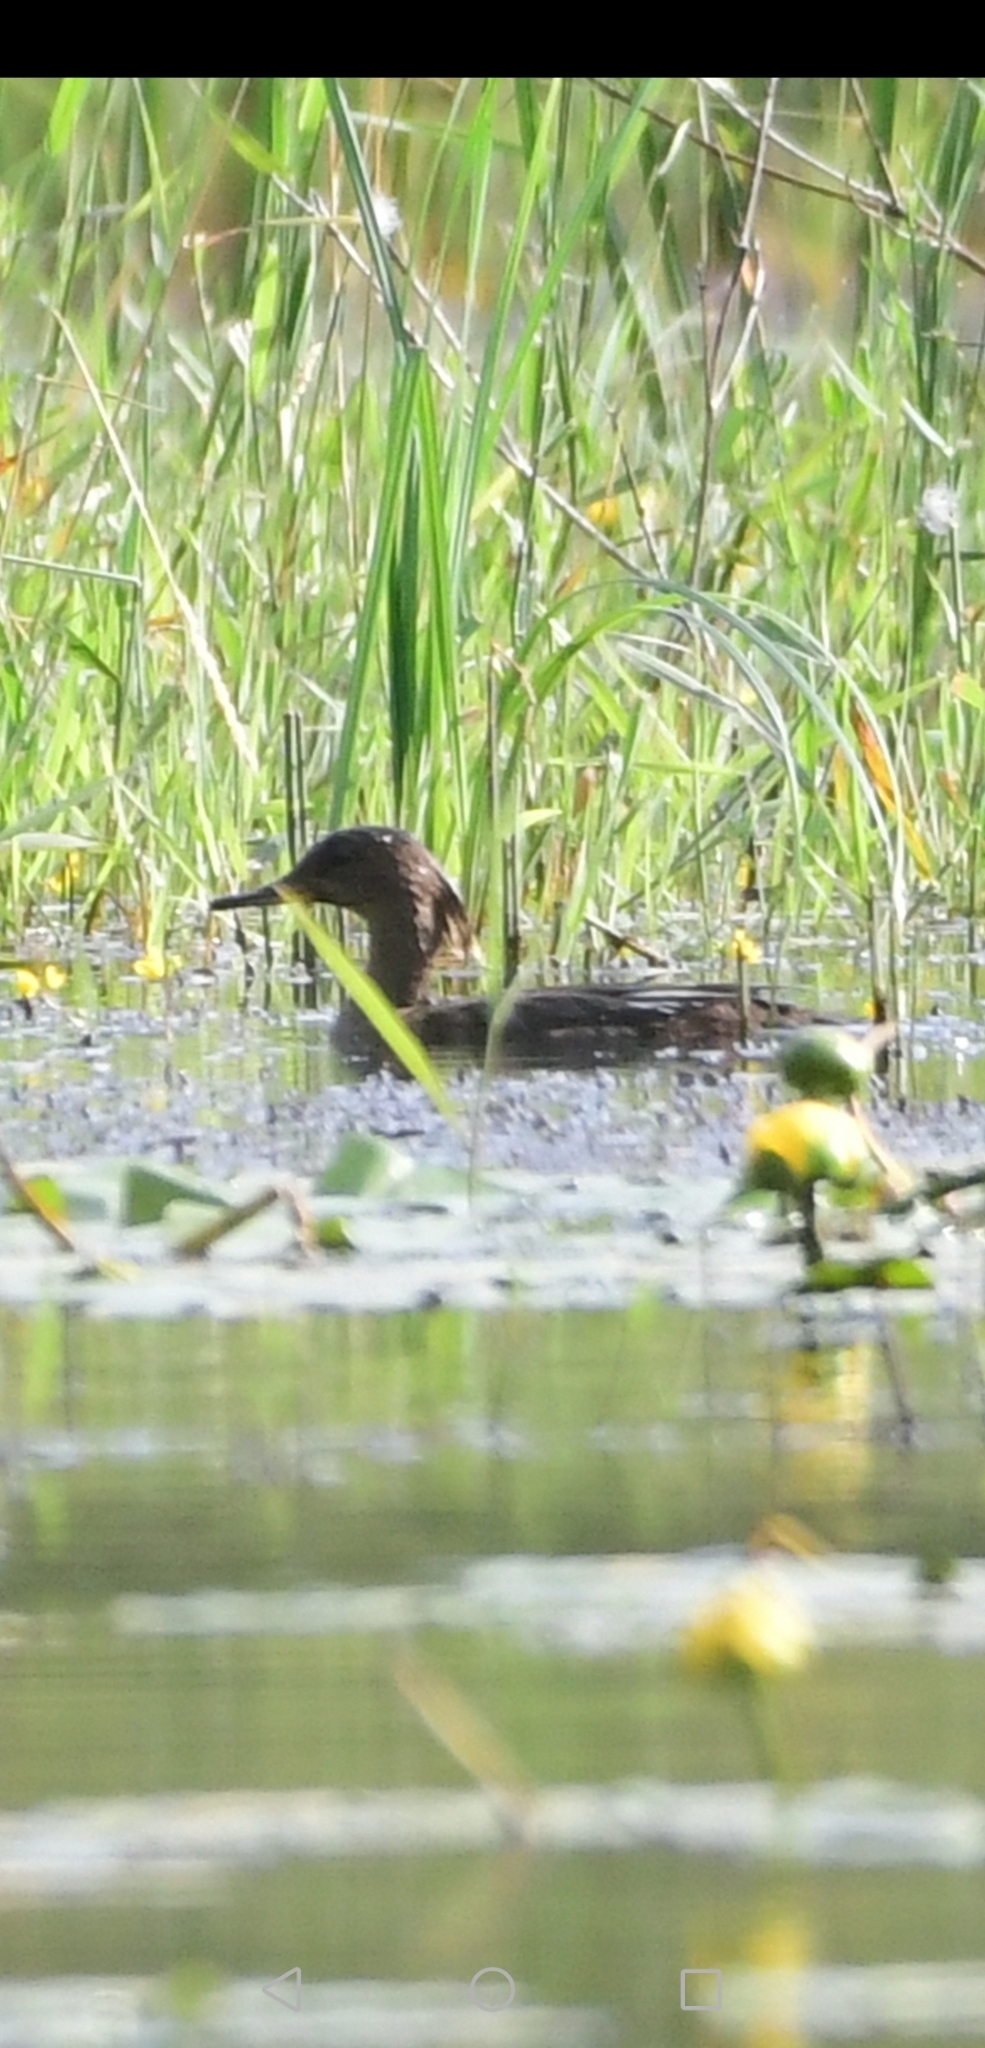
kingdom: Animalia
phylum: Chordata
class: Aves
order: Anseriformes
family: Anatidae
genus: Lophodytes
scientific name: Lophodytes cucullatus
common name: Hooded merganser
